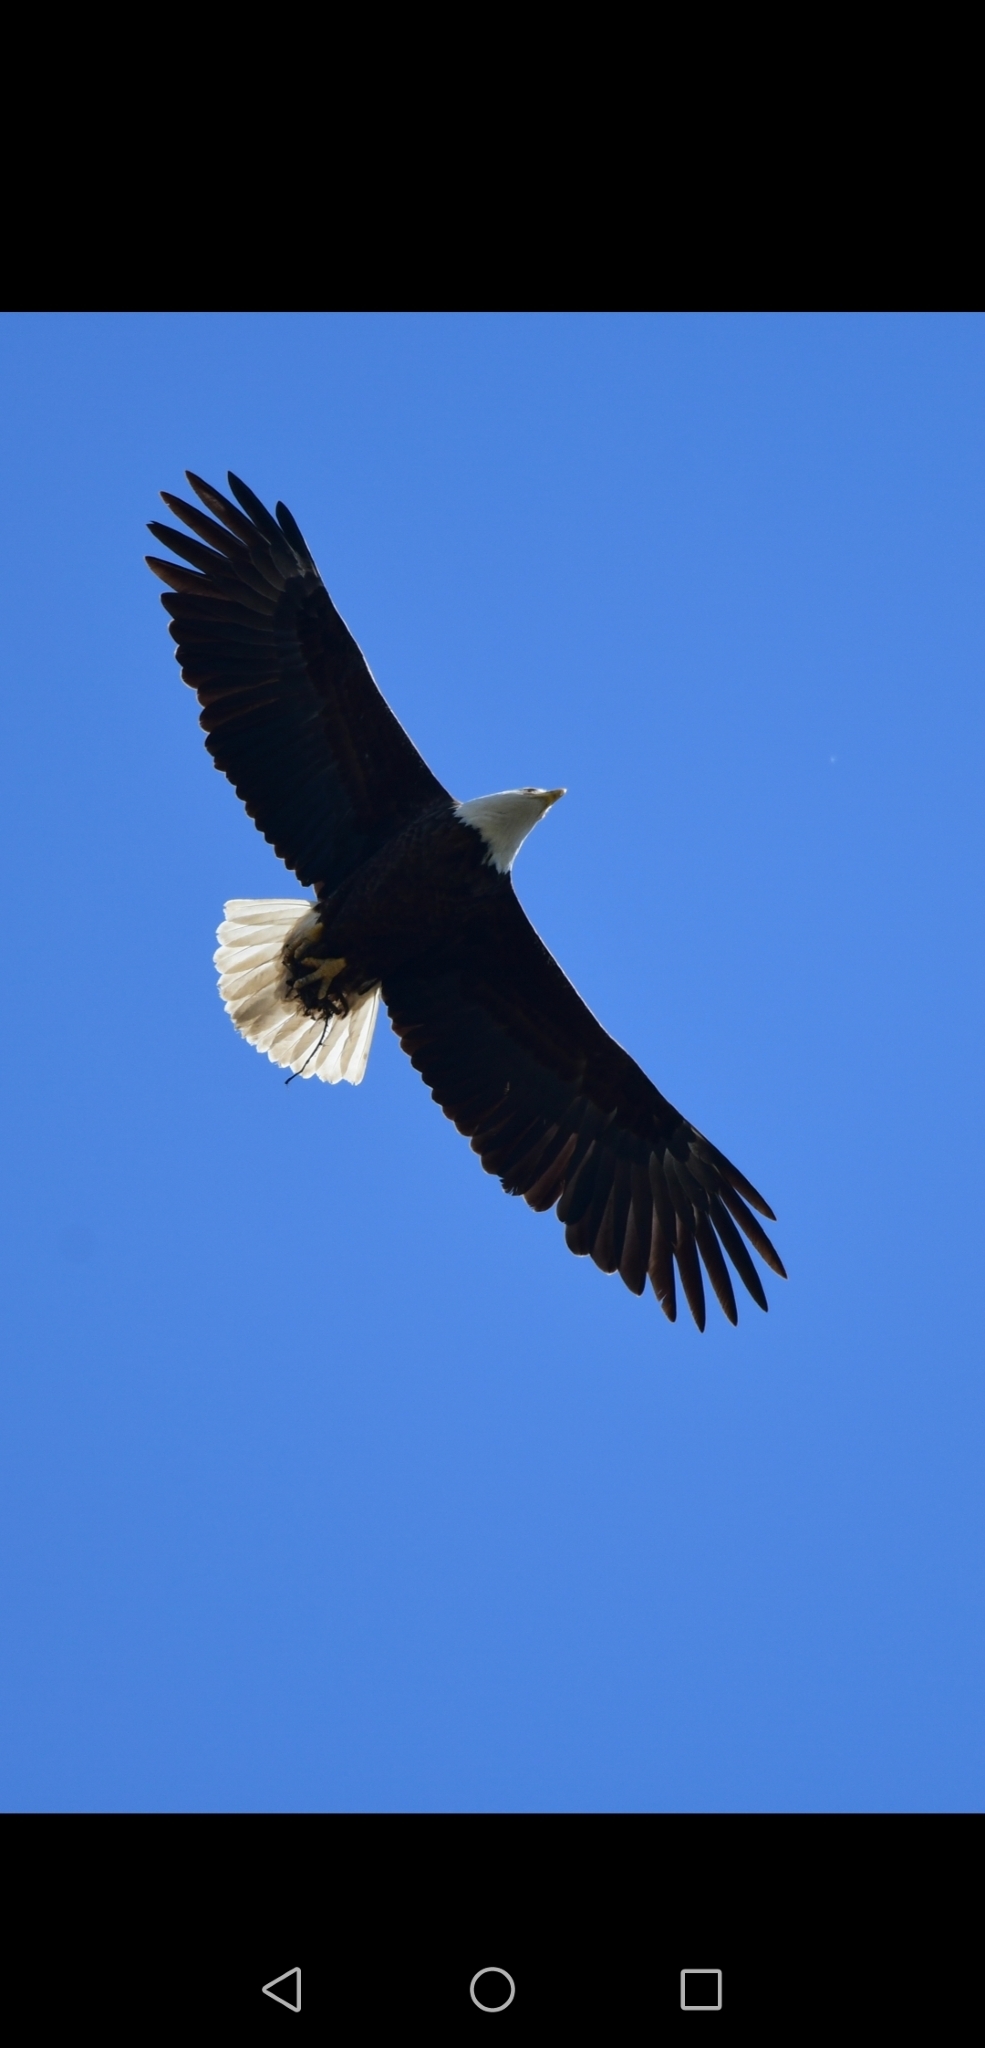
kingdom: Animalia
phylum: Chordata
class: Aves
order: Accipitriformes
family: Accipitridae
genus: Haliaeetus
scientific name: Haliaeetus leucocephalus
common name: Bald eagle
